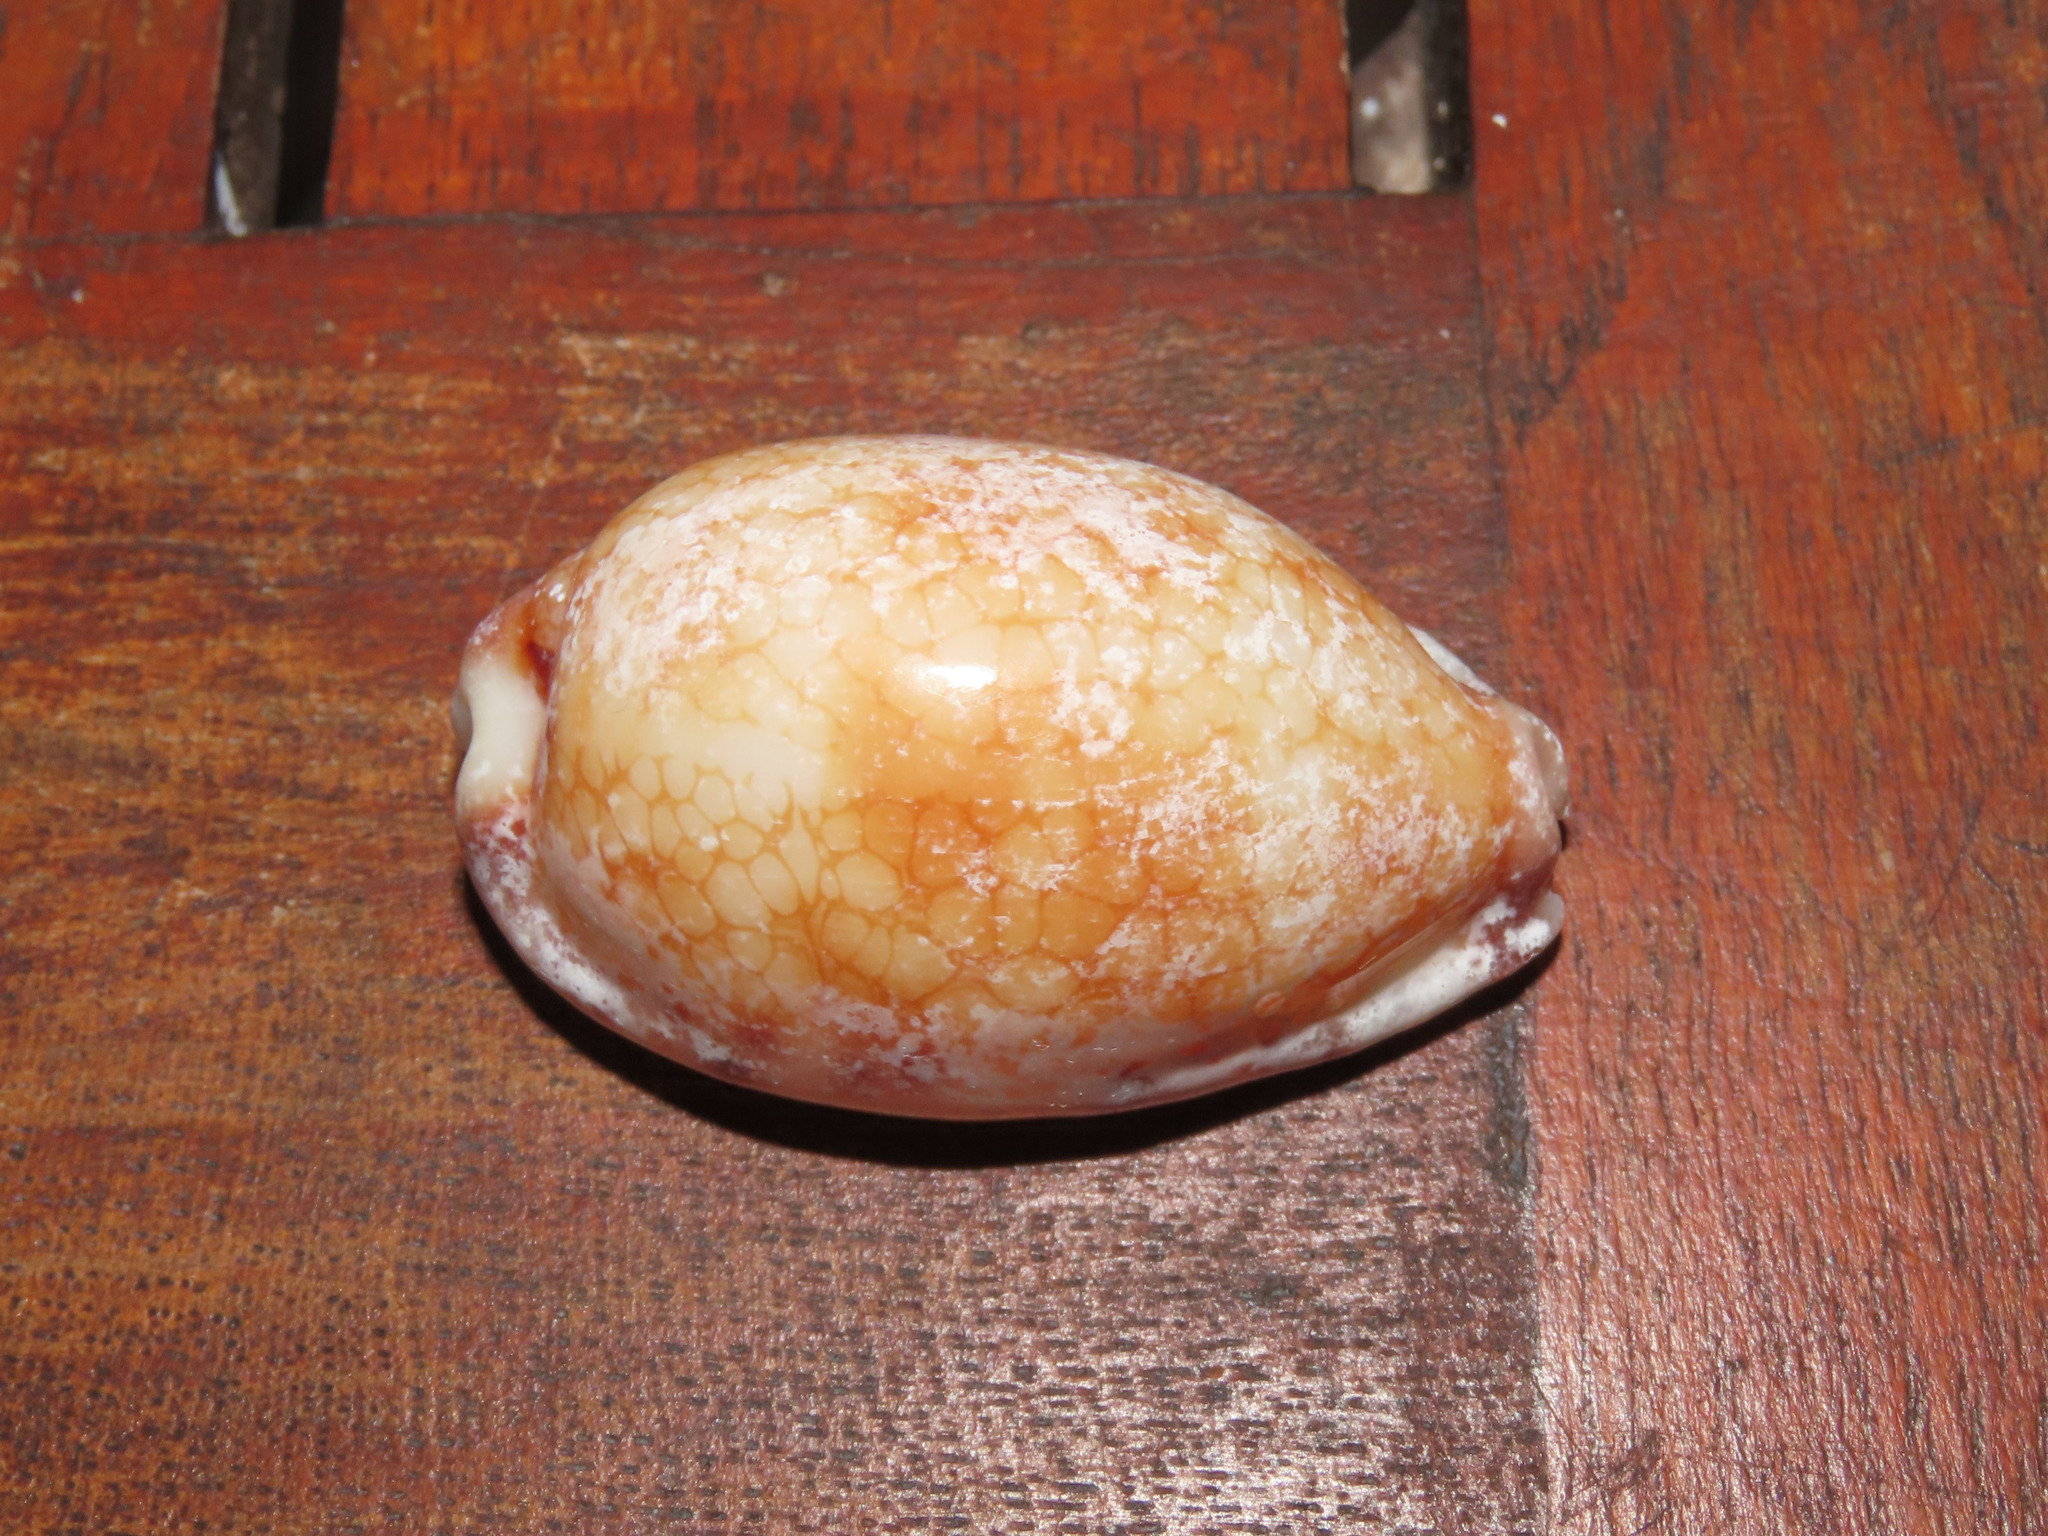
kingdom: Animalia
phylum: Mollusca
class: Gastropoda
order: Littorinimorpha
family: Cypraeidae
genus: Mauritia
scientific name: Mauritia histrio
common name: Harlequin cowrie
